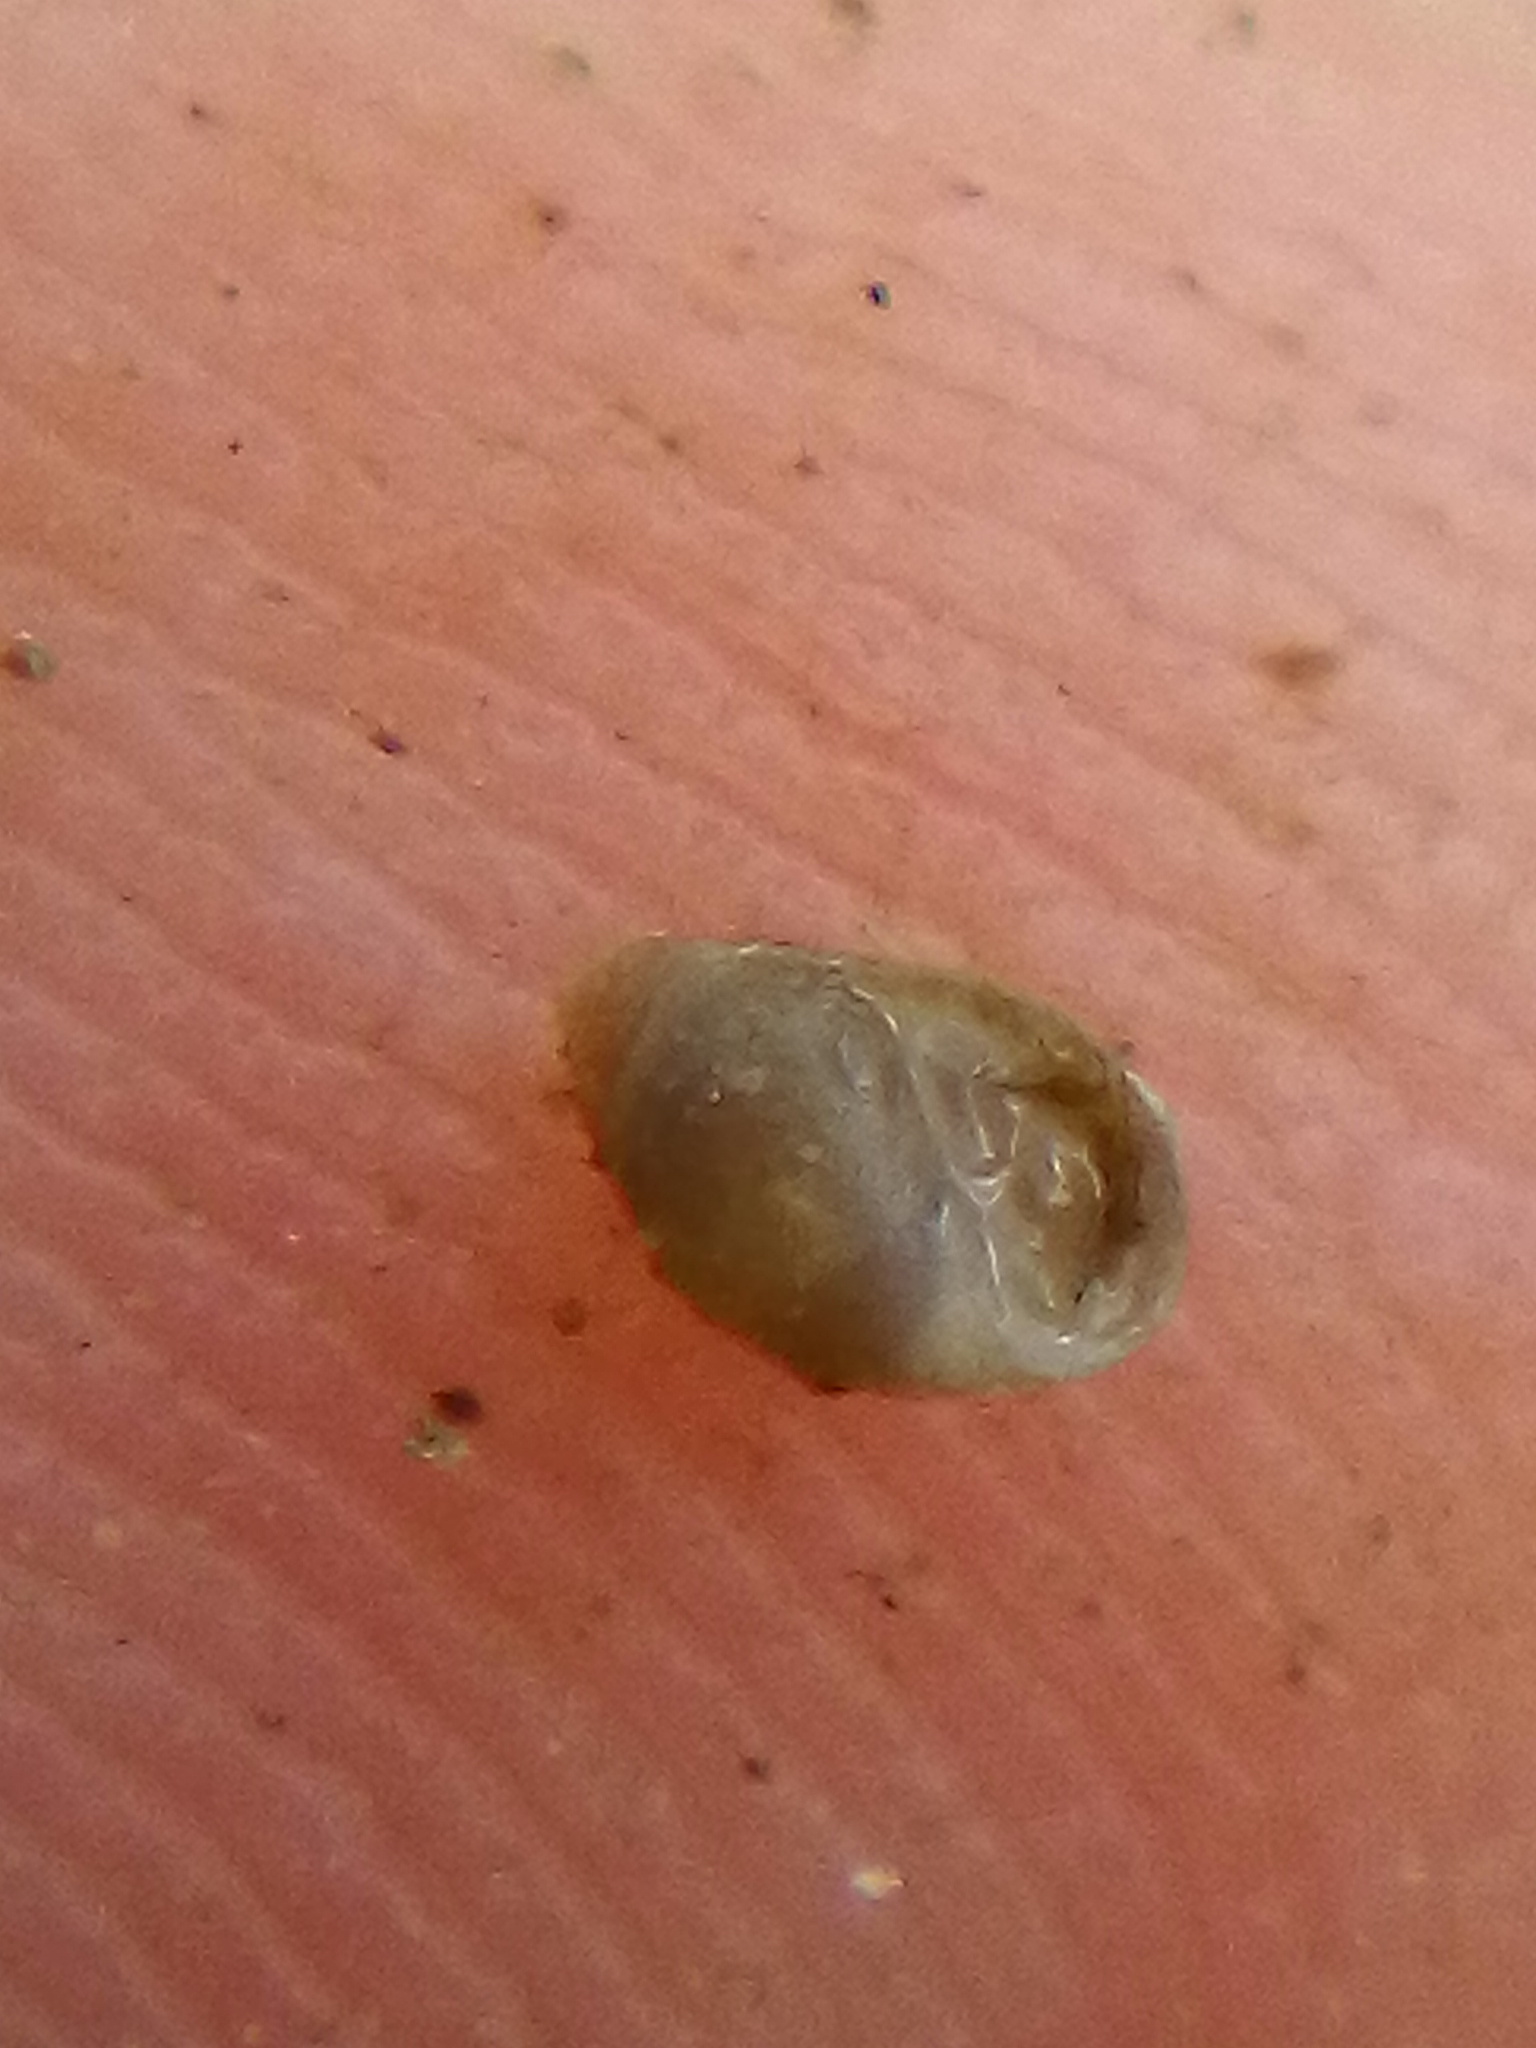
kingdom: Animalia
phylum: Mollusca
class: Gastropoda
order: Ellobiida
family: Ellobiidae
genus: Leuconopsis
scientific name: Leuconopsis obsoleta
